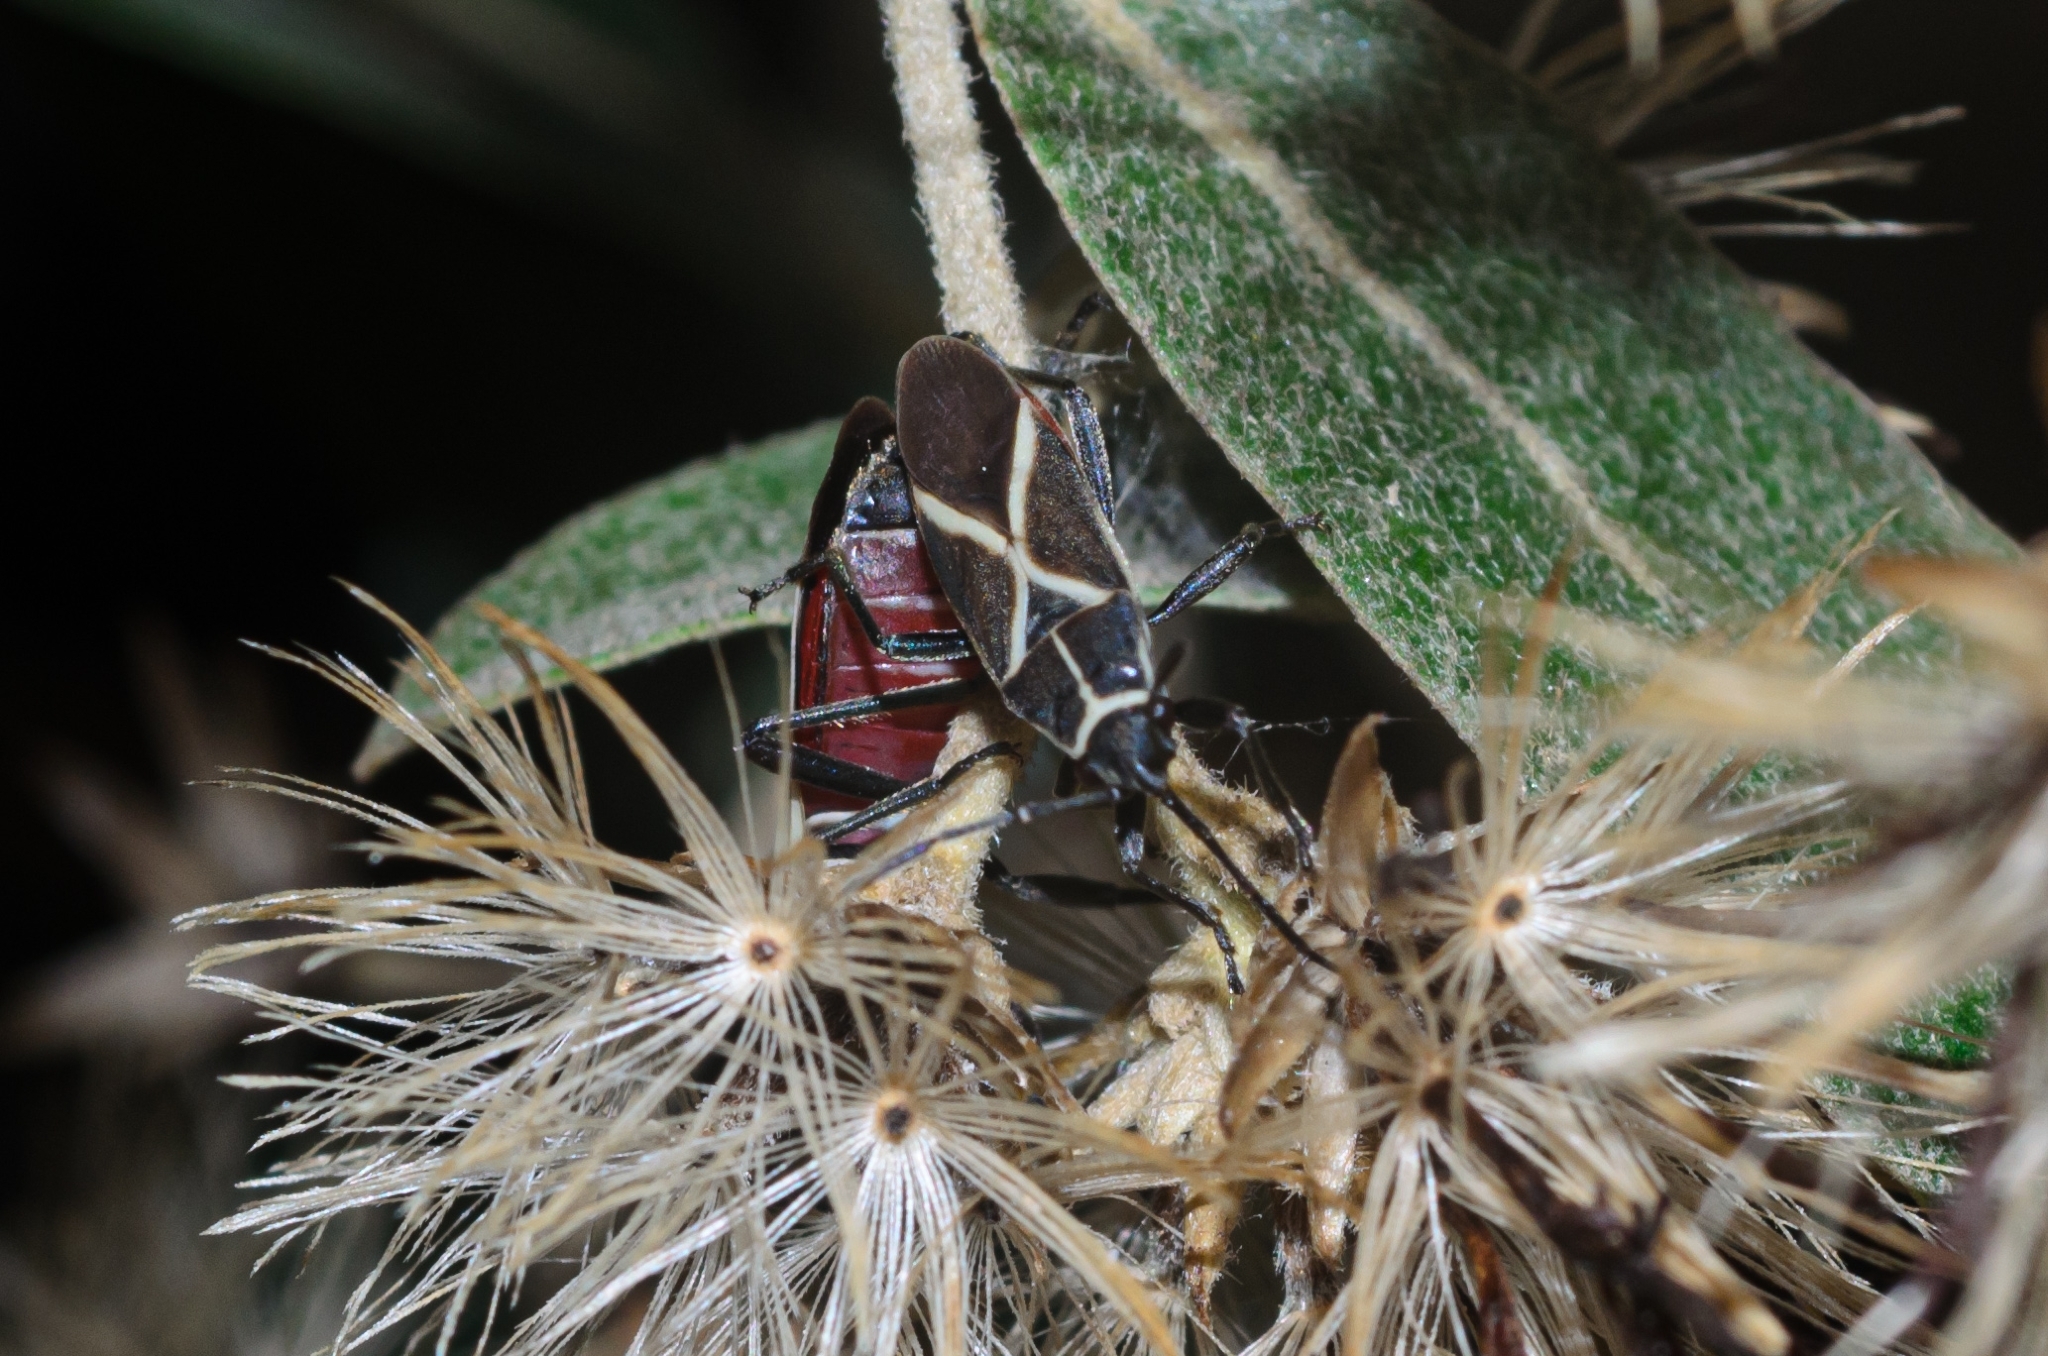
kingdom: Animalia
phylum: Arthropoda
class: Insecta
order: Hemiptera
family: Lygaeidae
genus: Craspeduchus
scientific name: Craspeduchus xanthostaurus
